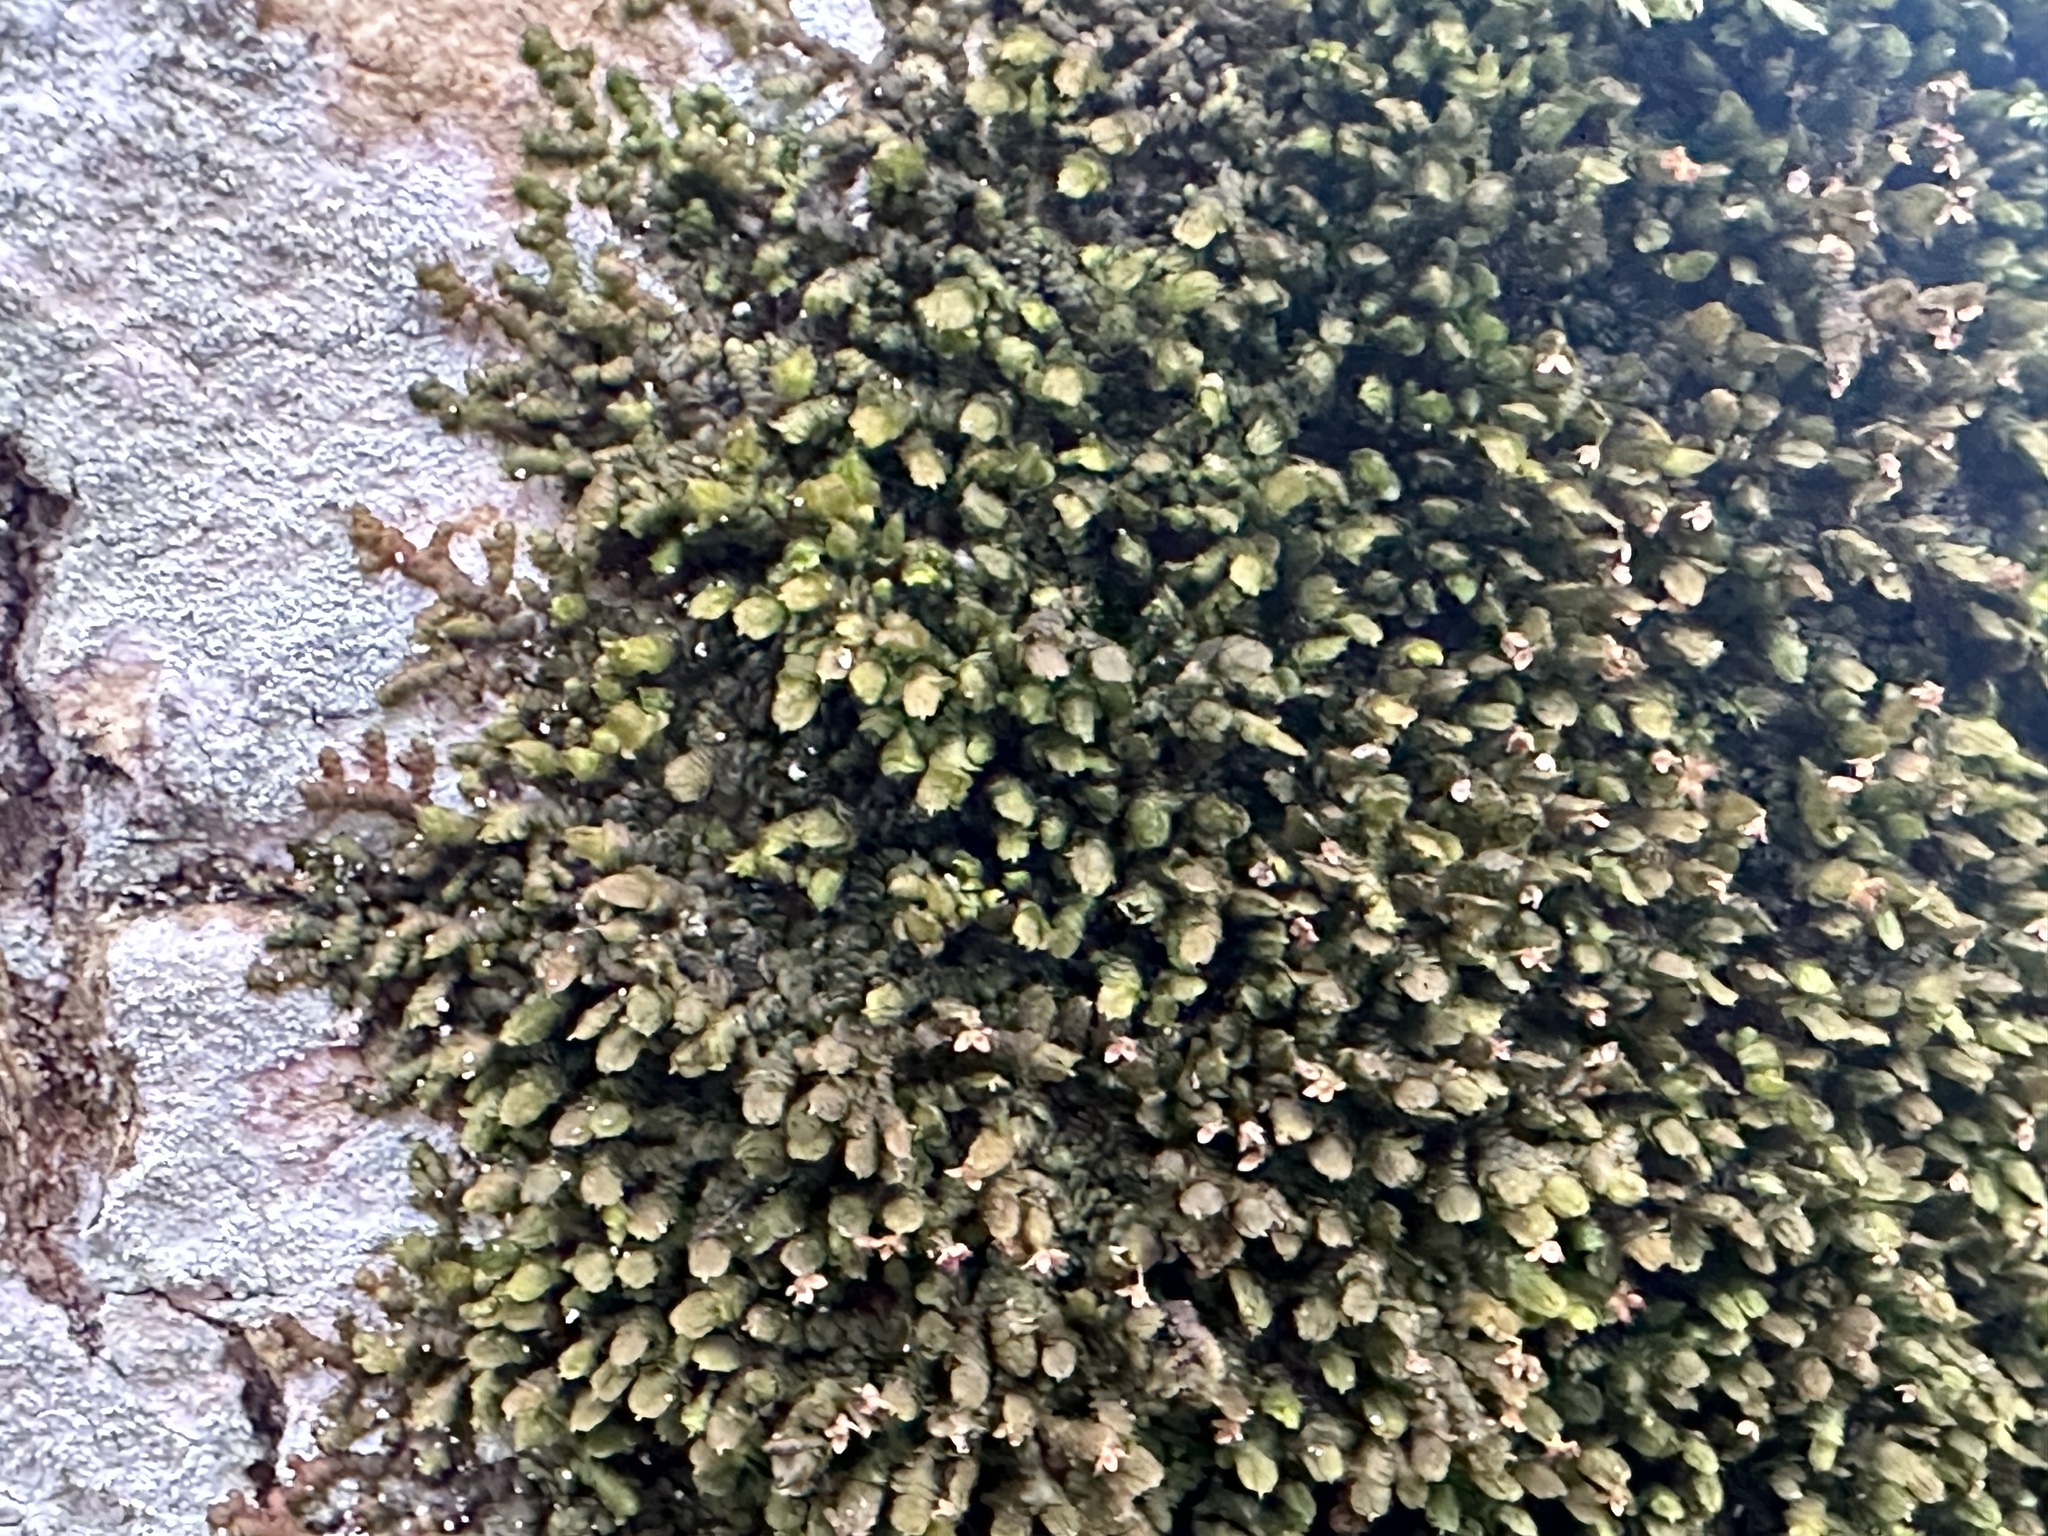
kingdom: Plantae
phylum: Marchantiophyta
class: Jungermanniopsida
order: Porellales
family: Frullaniaceae
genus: Frullania
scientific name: Frullania dilatata
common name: Dilated scalewort
